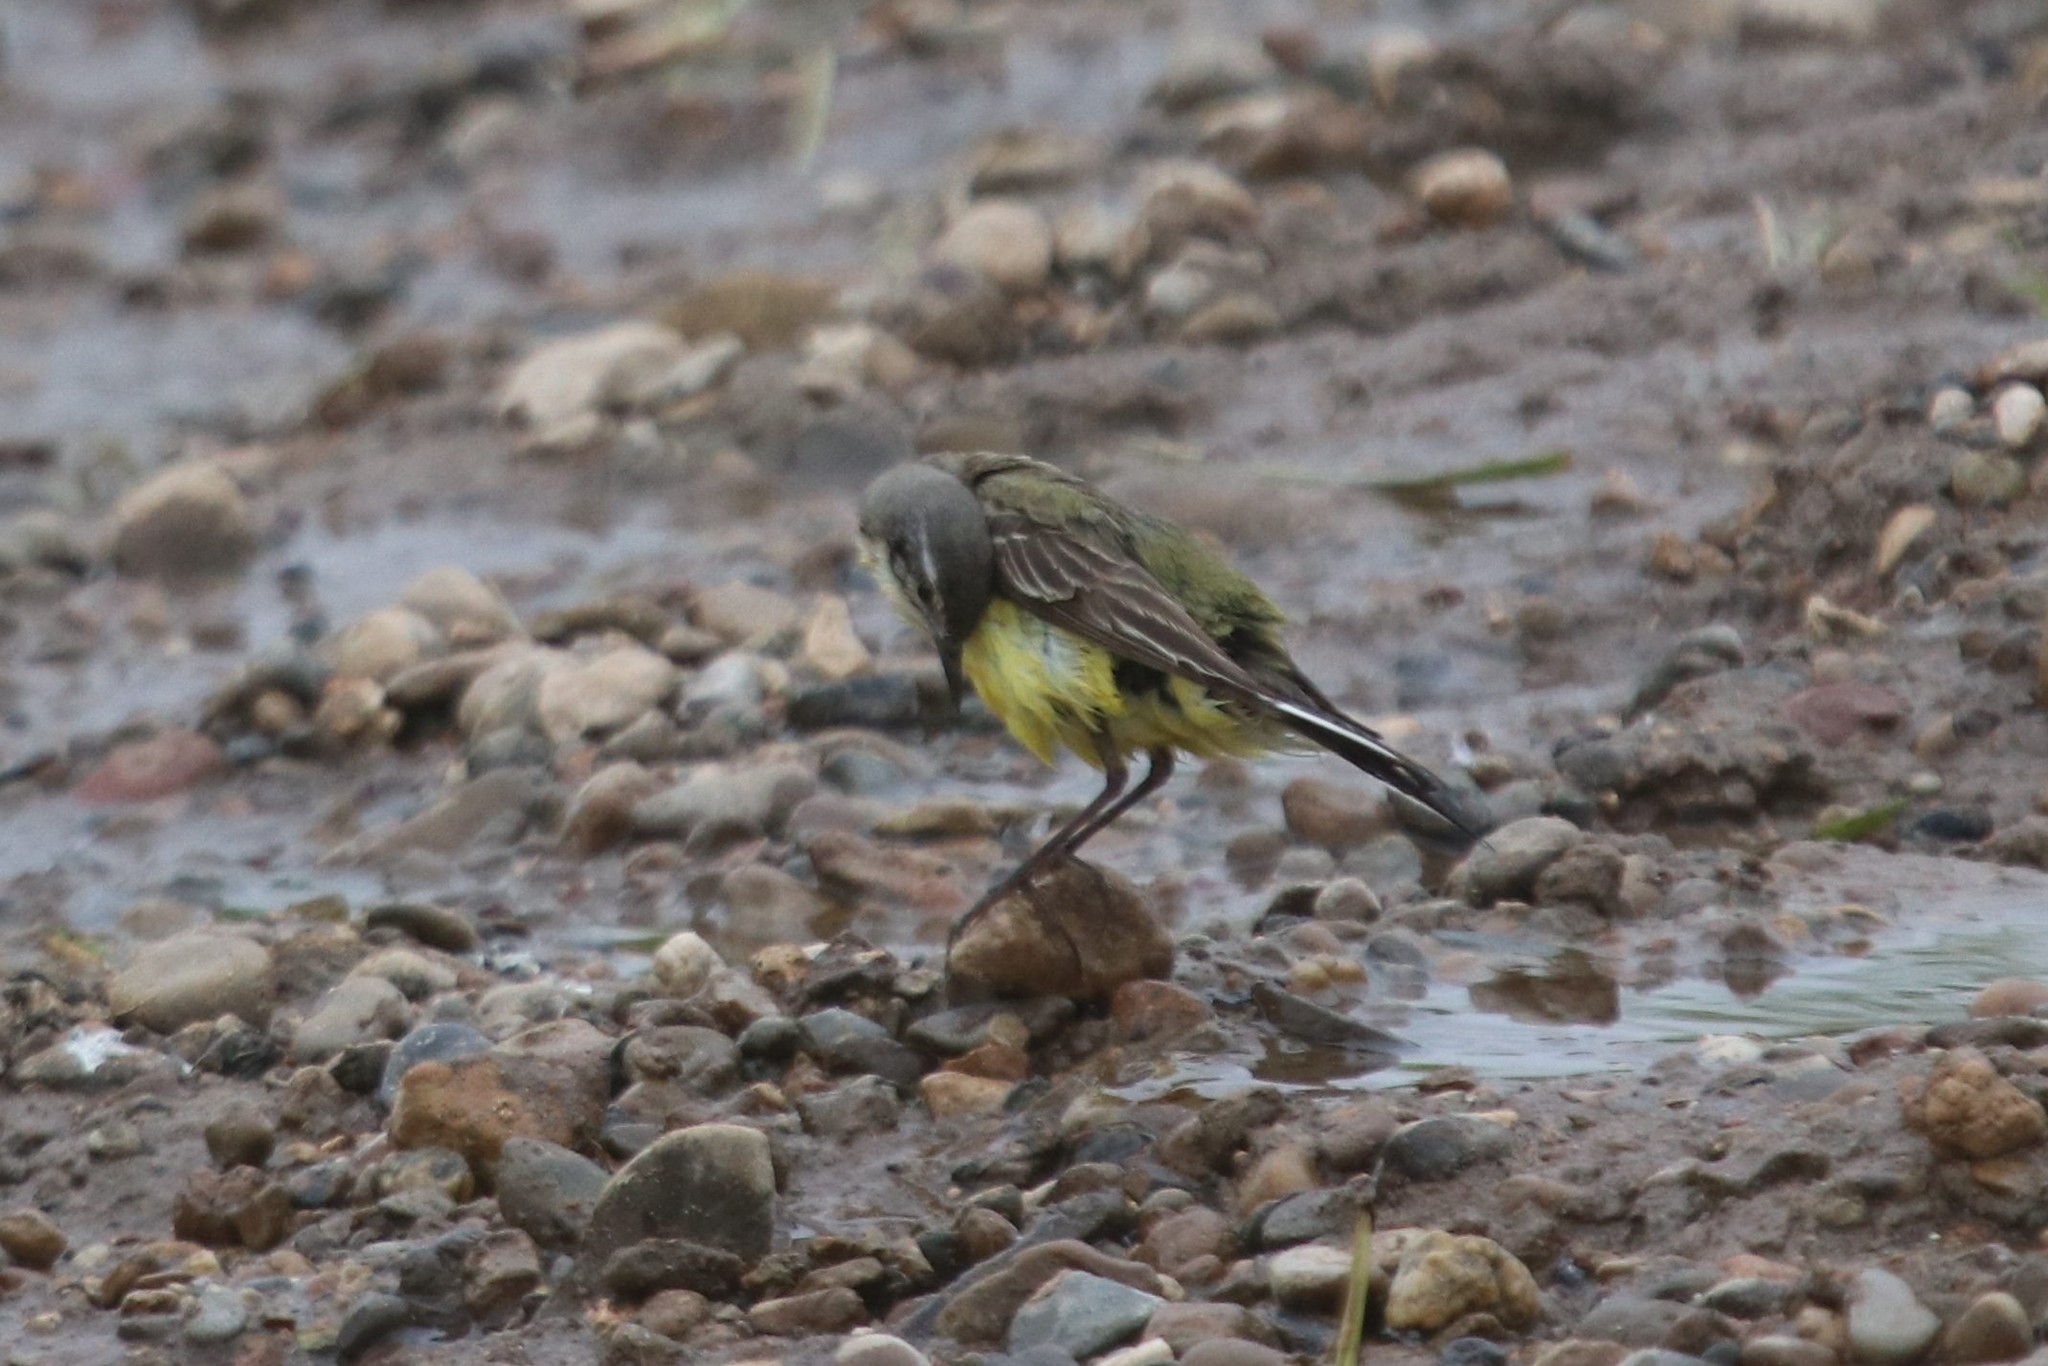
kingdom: Animalia
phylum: Chordata
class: Aves
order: Passeriformes
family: Motacillidae
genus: Motacilla
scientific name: Motacilla flava
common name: Western yellow wagtail
